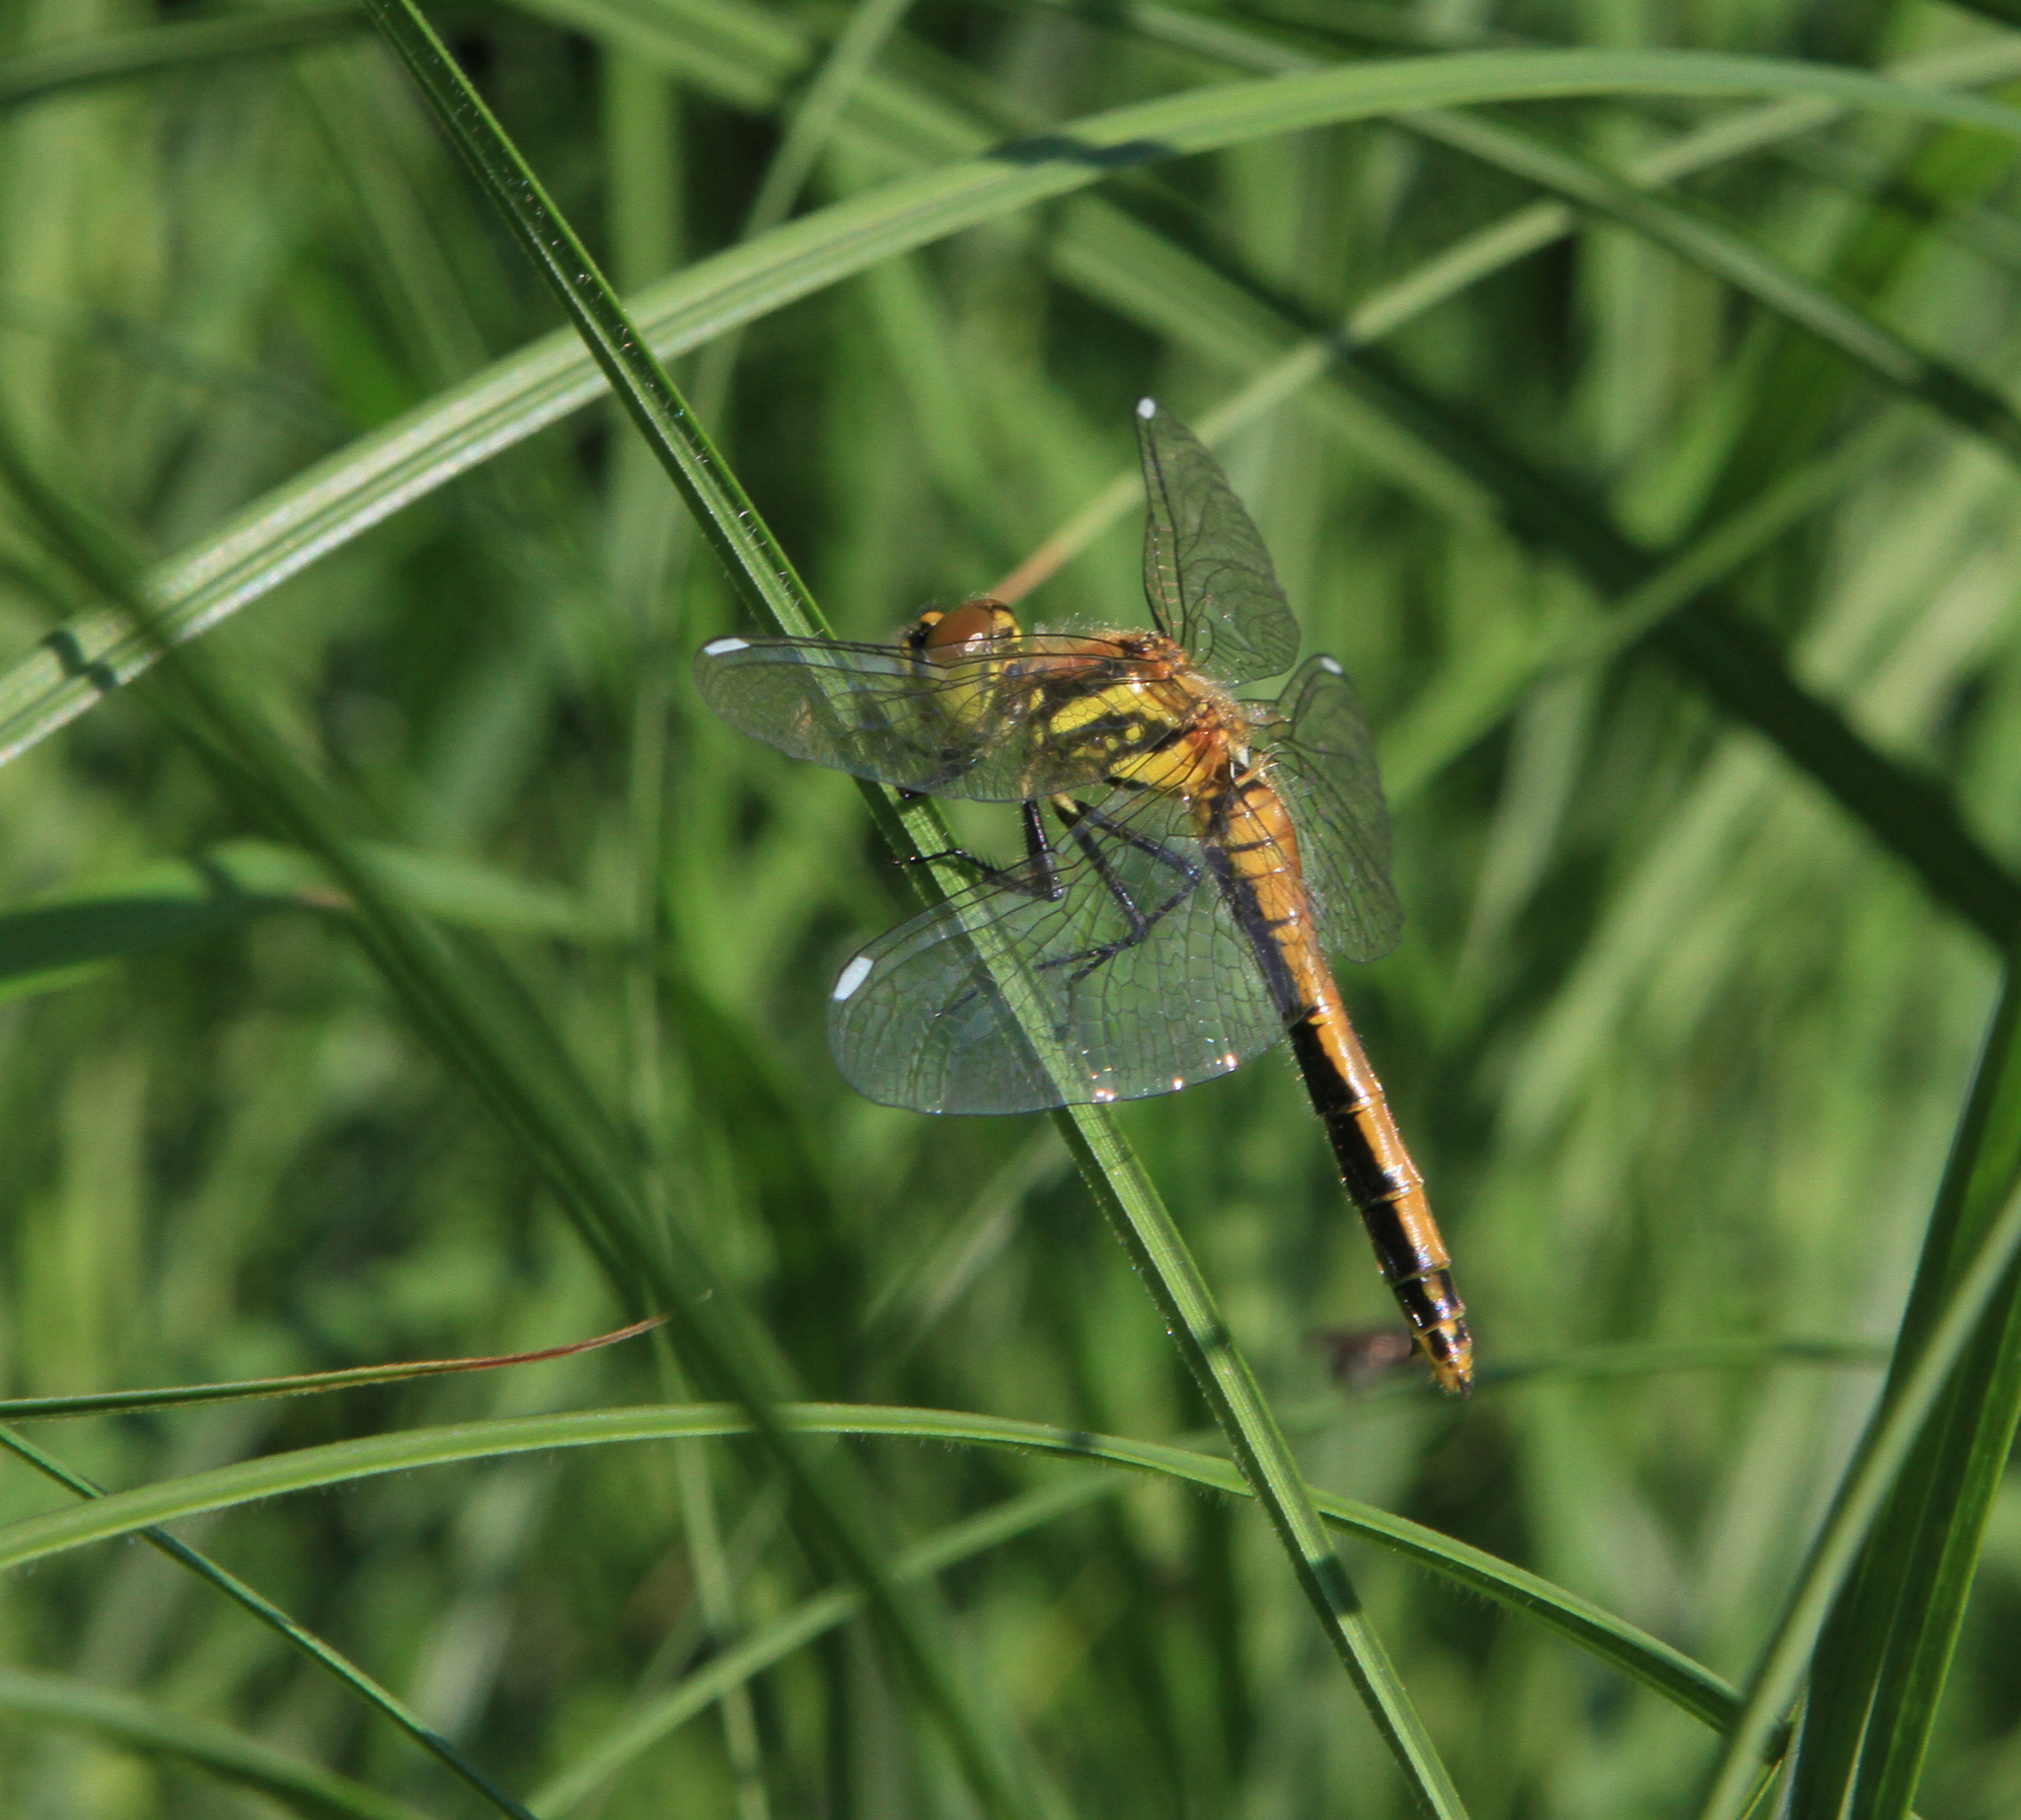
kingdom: Animalia
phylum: Arthropoda
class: Insecta
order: Odonata
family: Libellulidae
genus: Sympetrum
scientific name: Sympetrum danae
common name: Black darter
